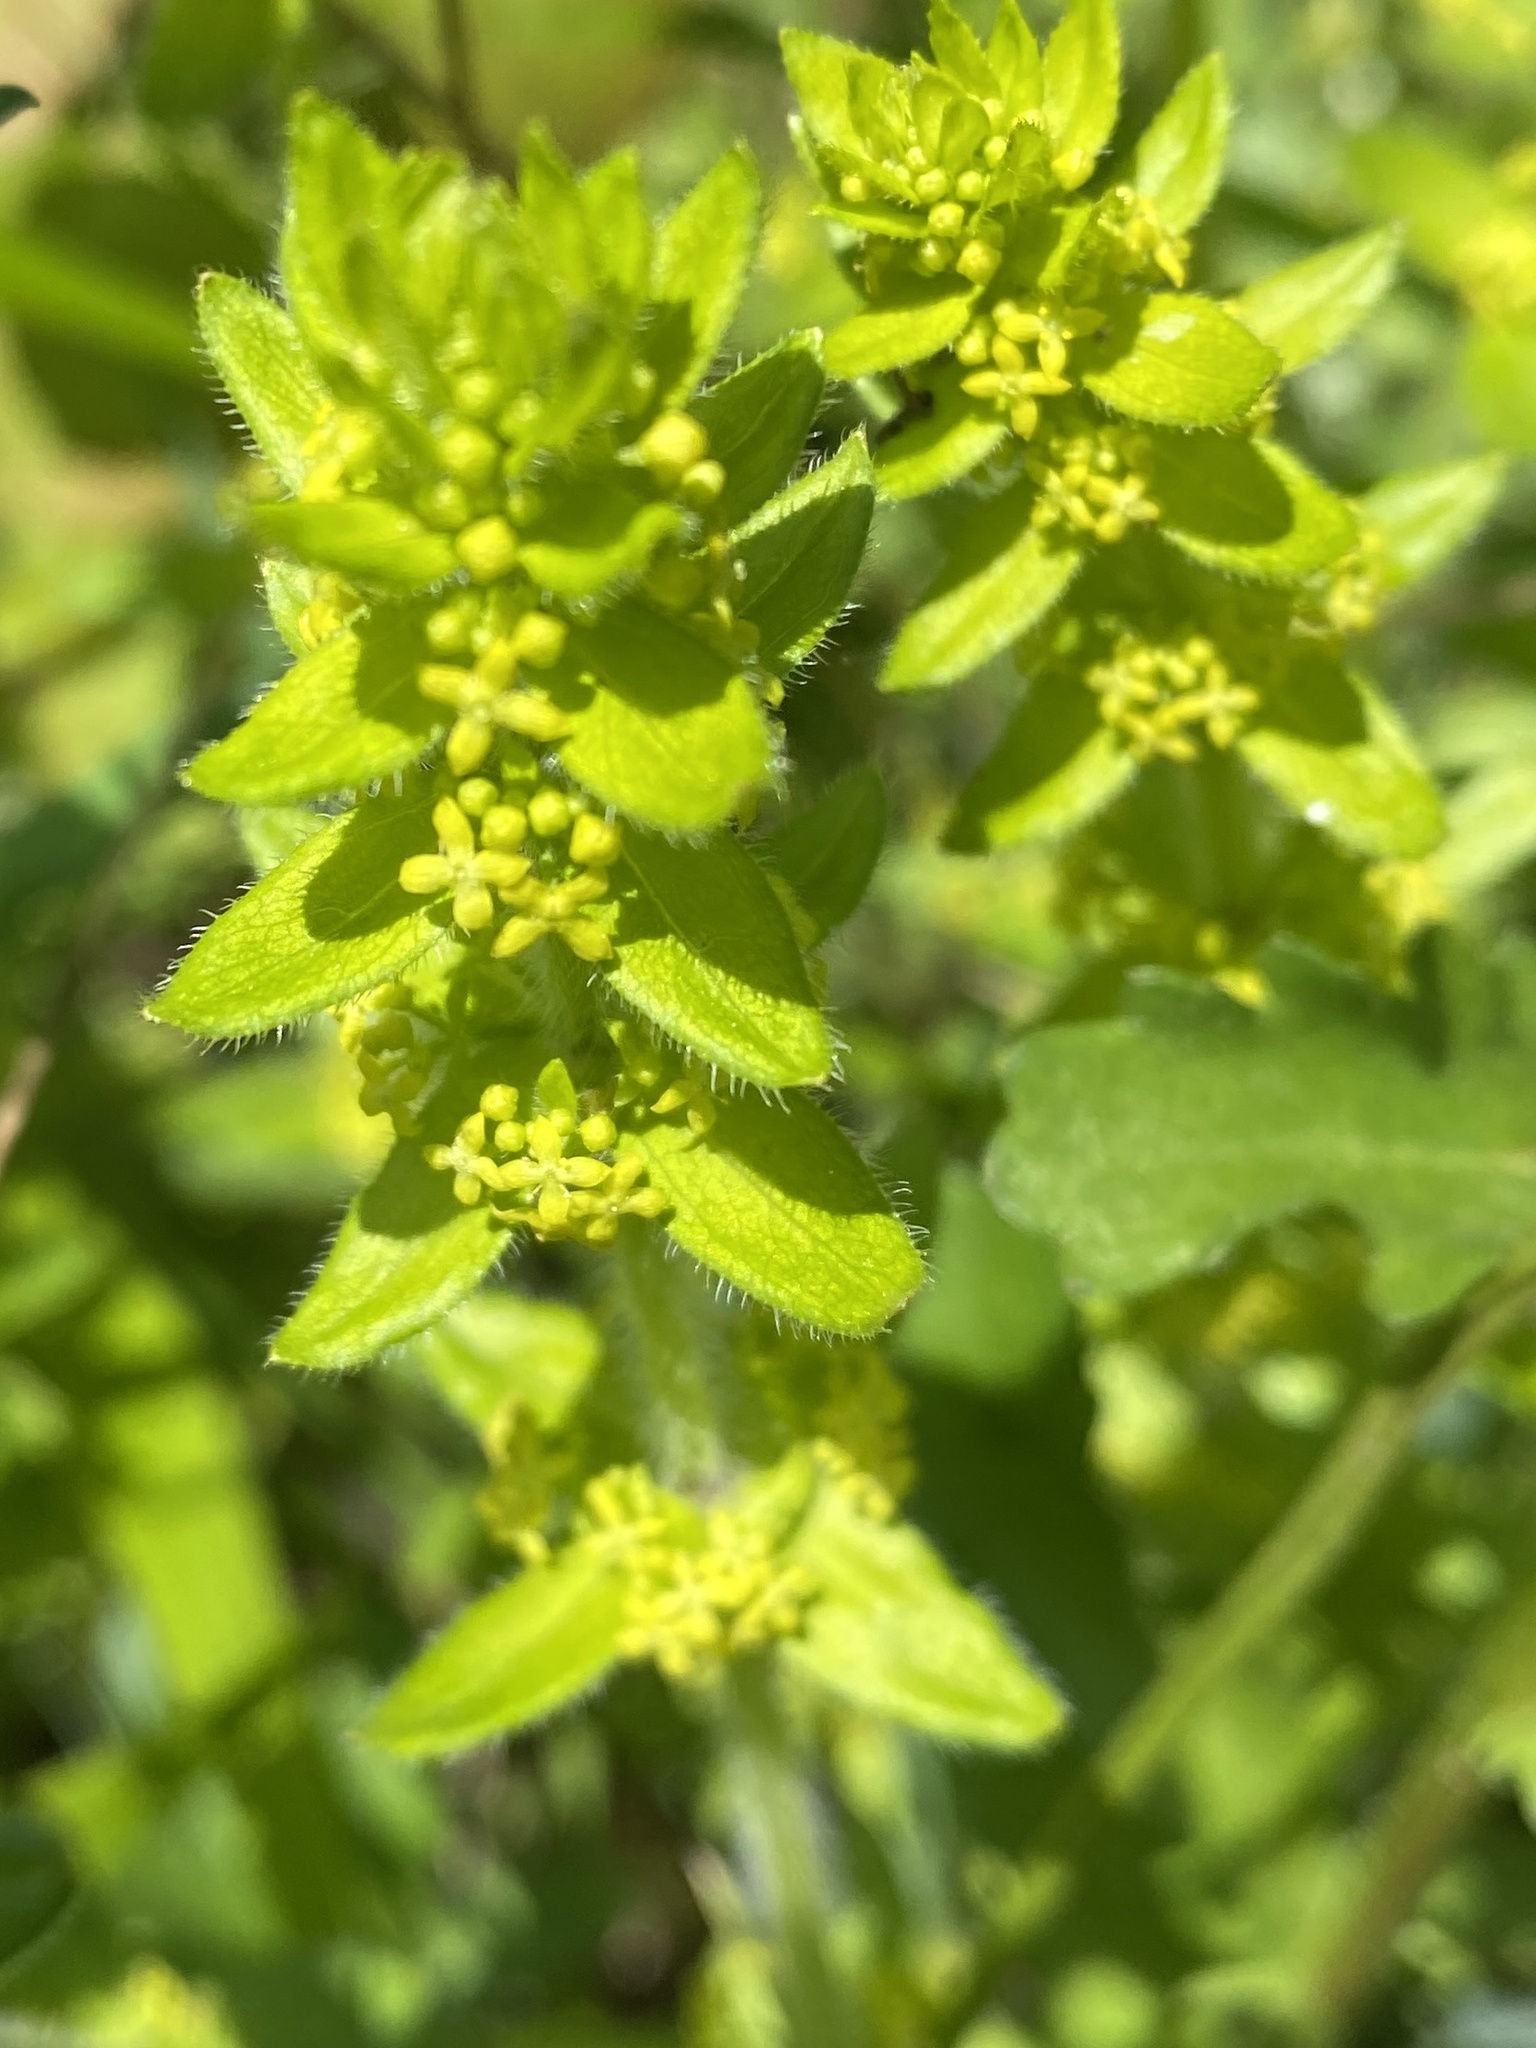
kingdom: Plantae
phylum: Tracheophyta
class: Magnoliopsida
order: Gentianales
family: Rubiaceae
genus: Cruciata
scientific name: Cruciata laevipes
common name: Crosswort
